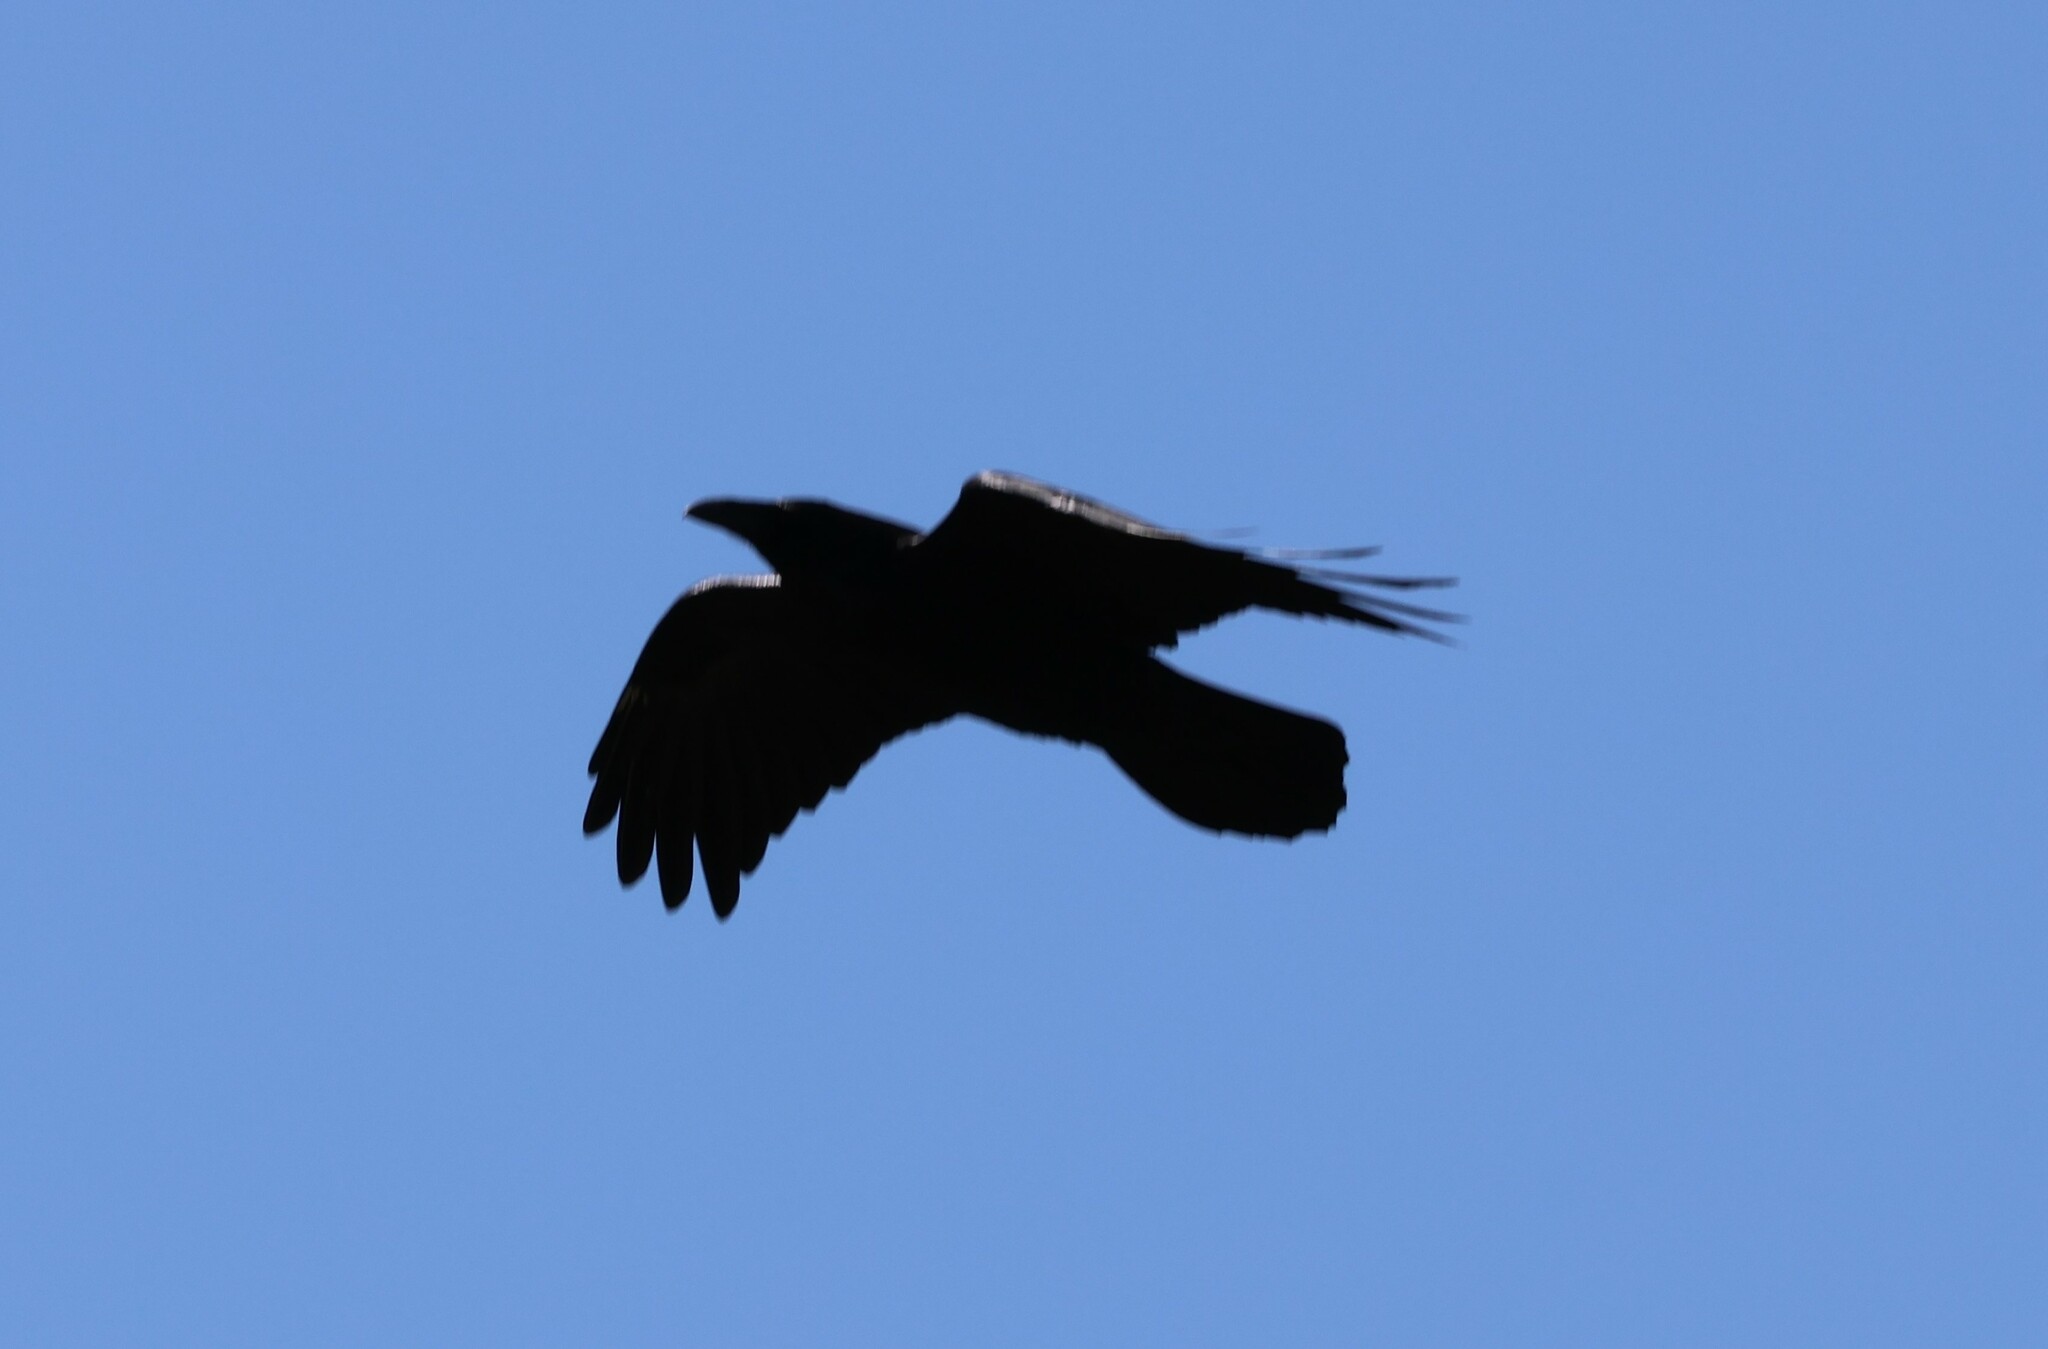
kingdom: Animalia
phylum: Chordata
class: Aves
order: Passeriformes
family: Corvidae
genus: Corvus
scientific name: Corvus corax
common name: Common raven
